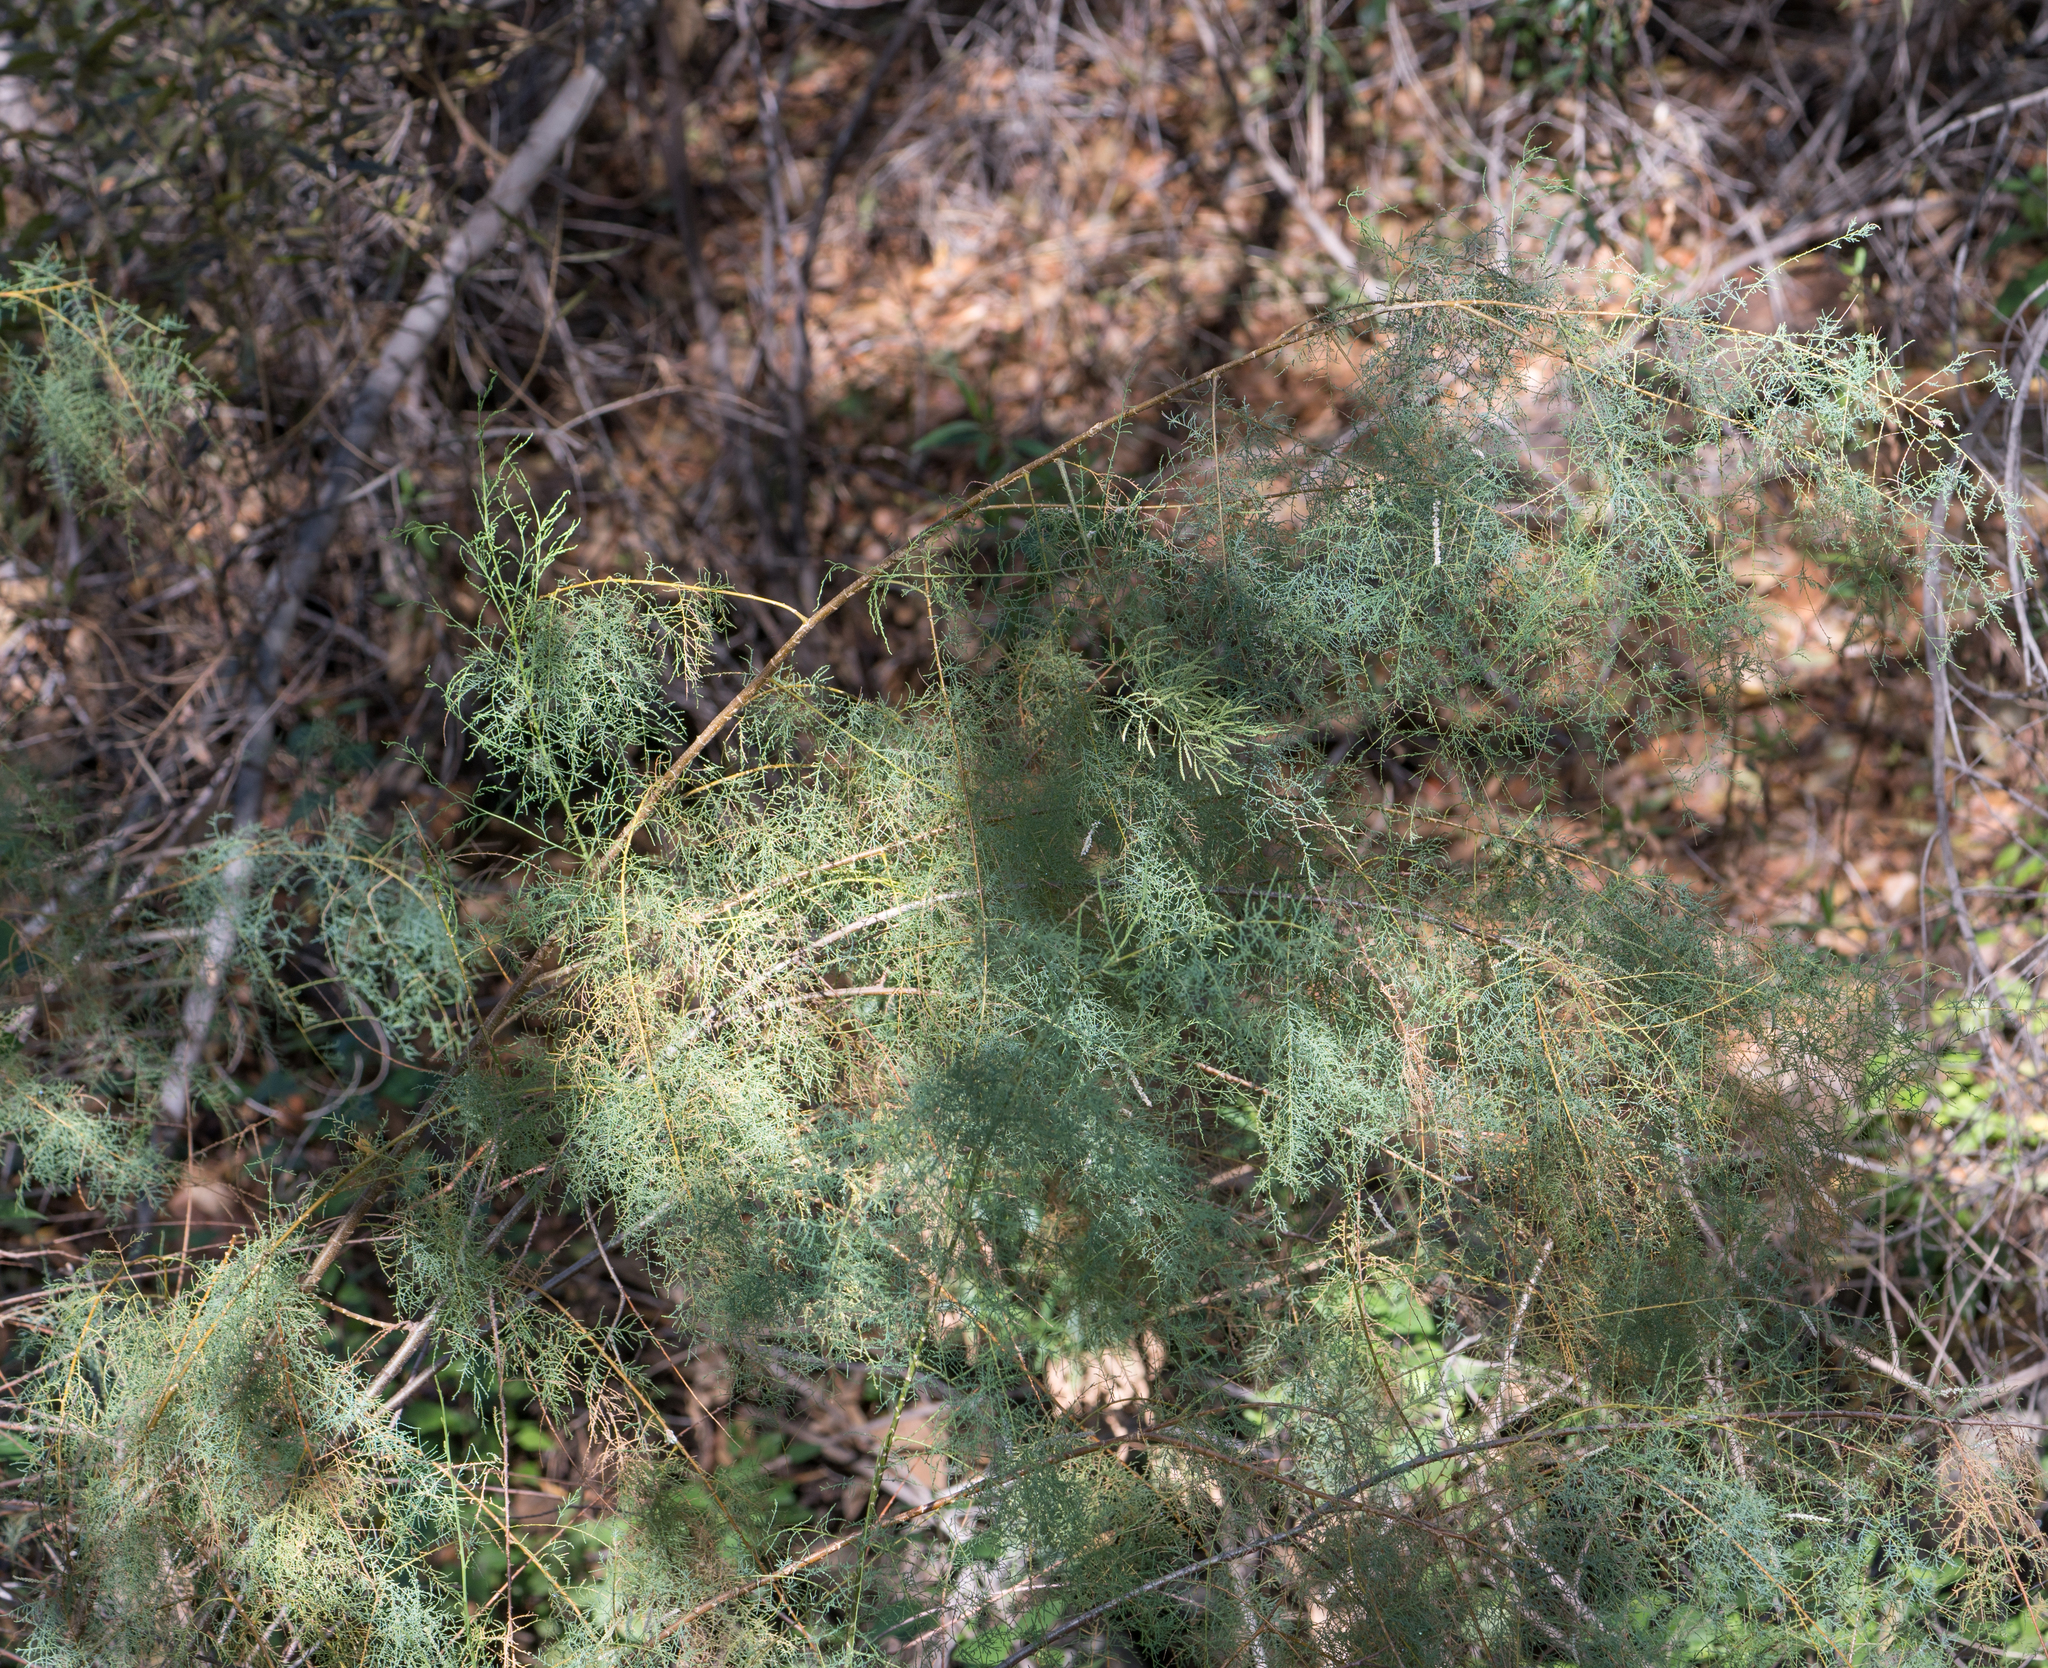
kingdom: Plantae
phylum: Tracheophyta
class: Magnoliopsida
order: Caryophyllales
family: Tamaricaceae
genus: Tamarix
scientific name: Tamarix
